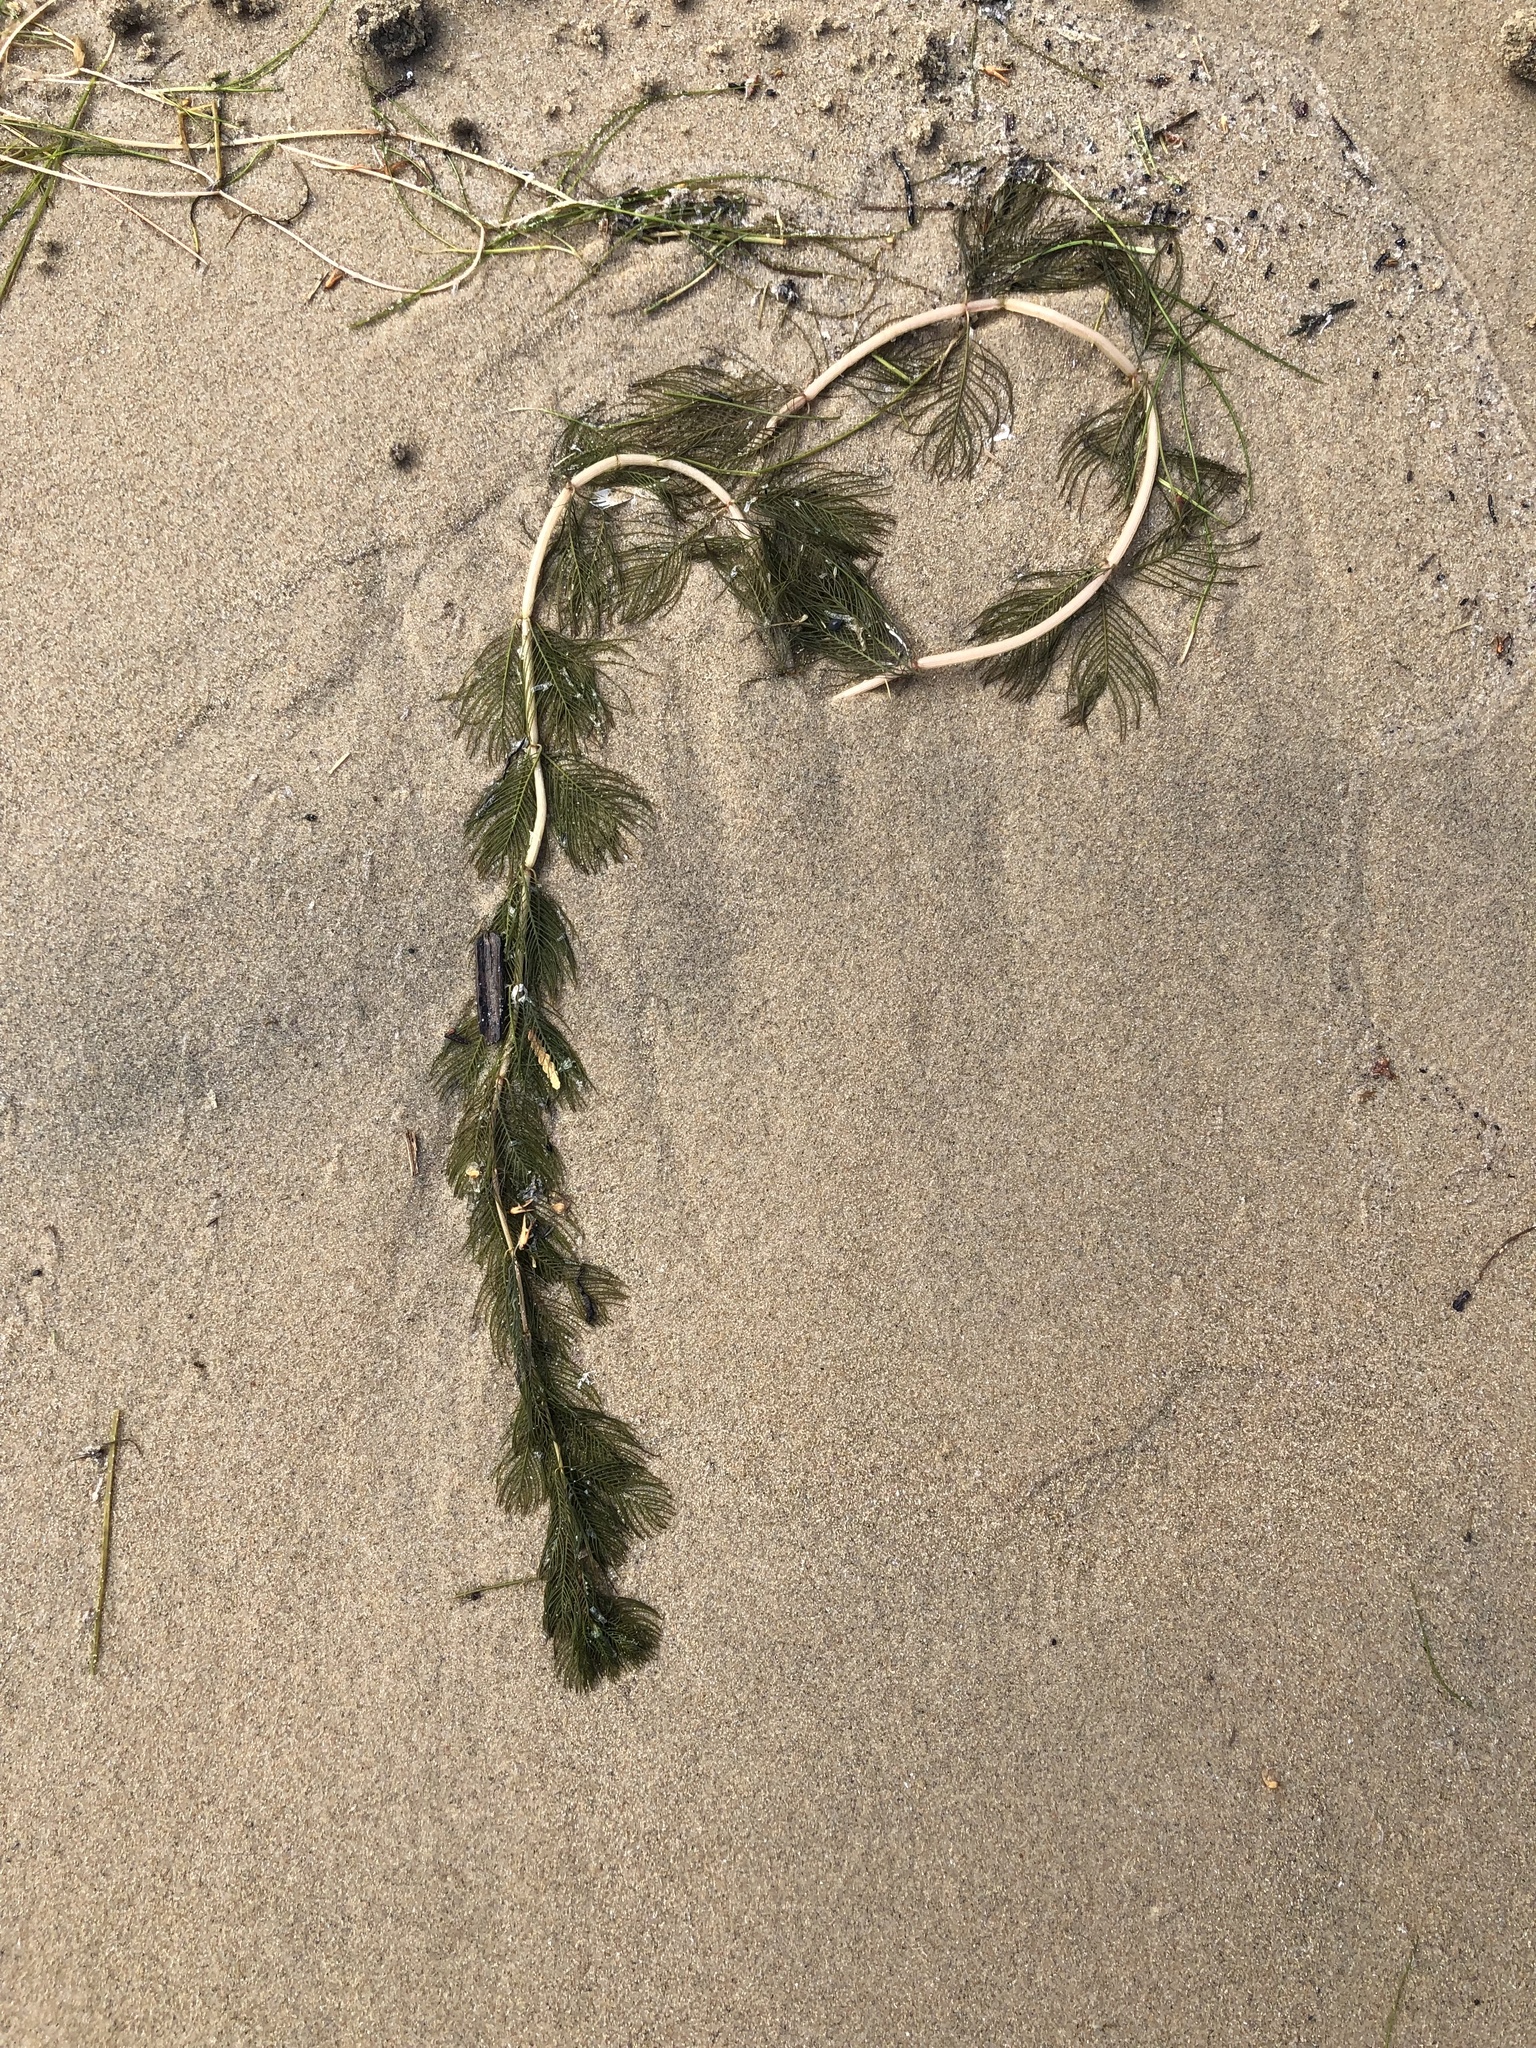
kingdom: Plantae
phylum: Tracheophyta
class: Magnoliopsida
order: Saxifragales
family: Haloragaceae
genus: Myriophyllum
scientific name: Myriophyllum spicatum
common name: Spiked water-milfoil
